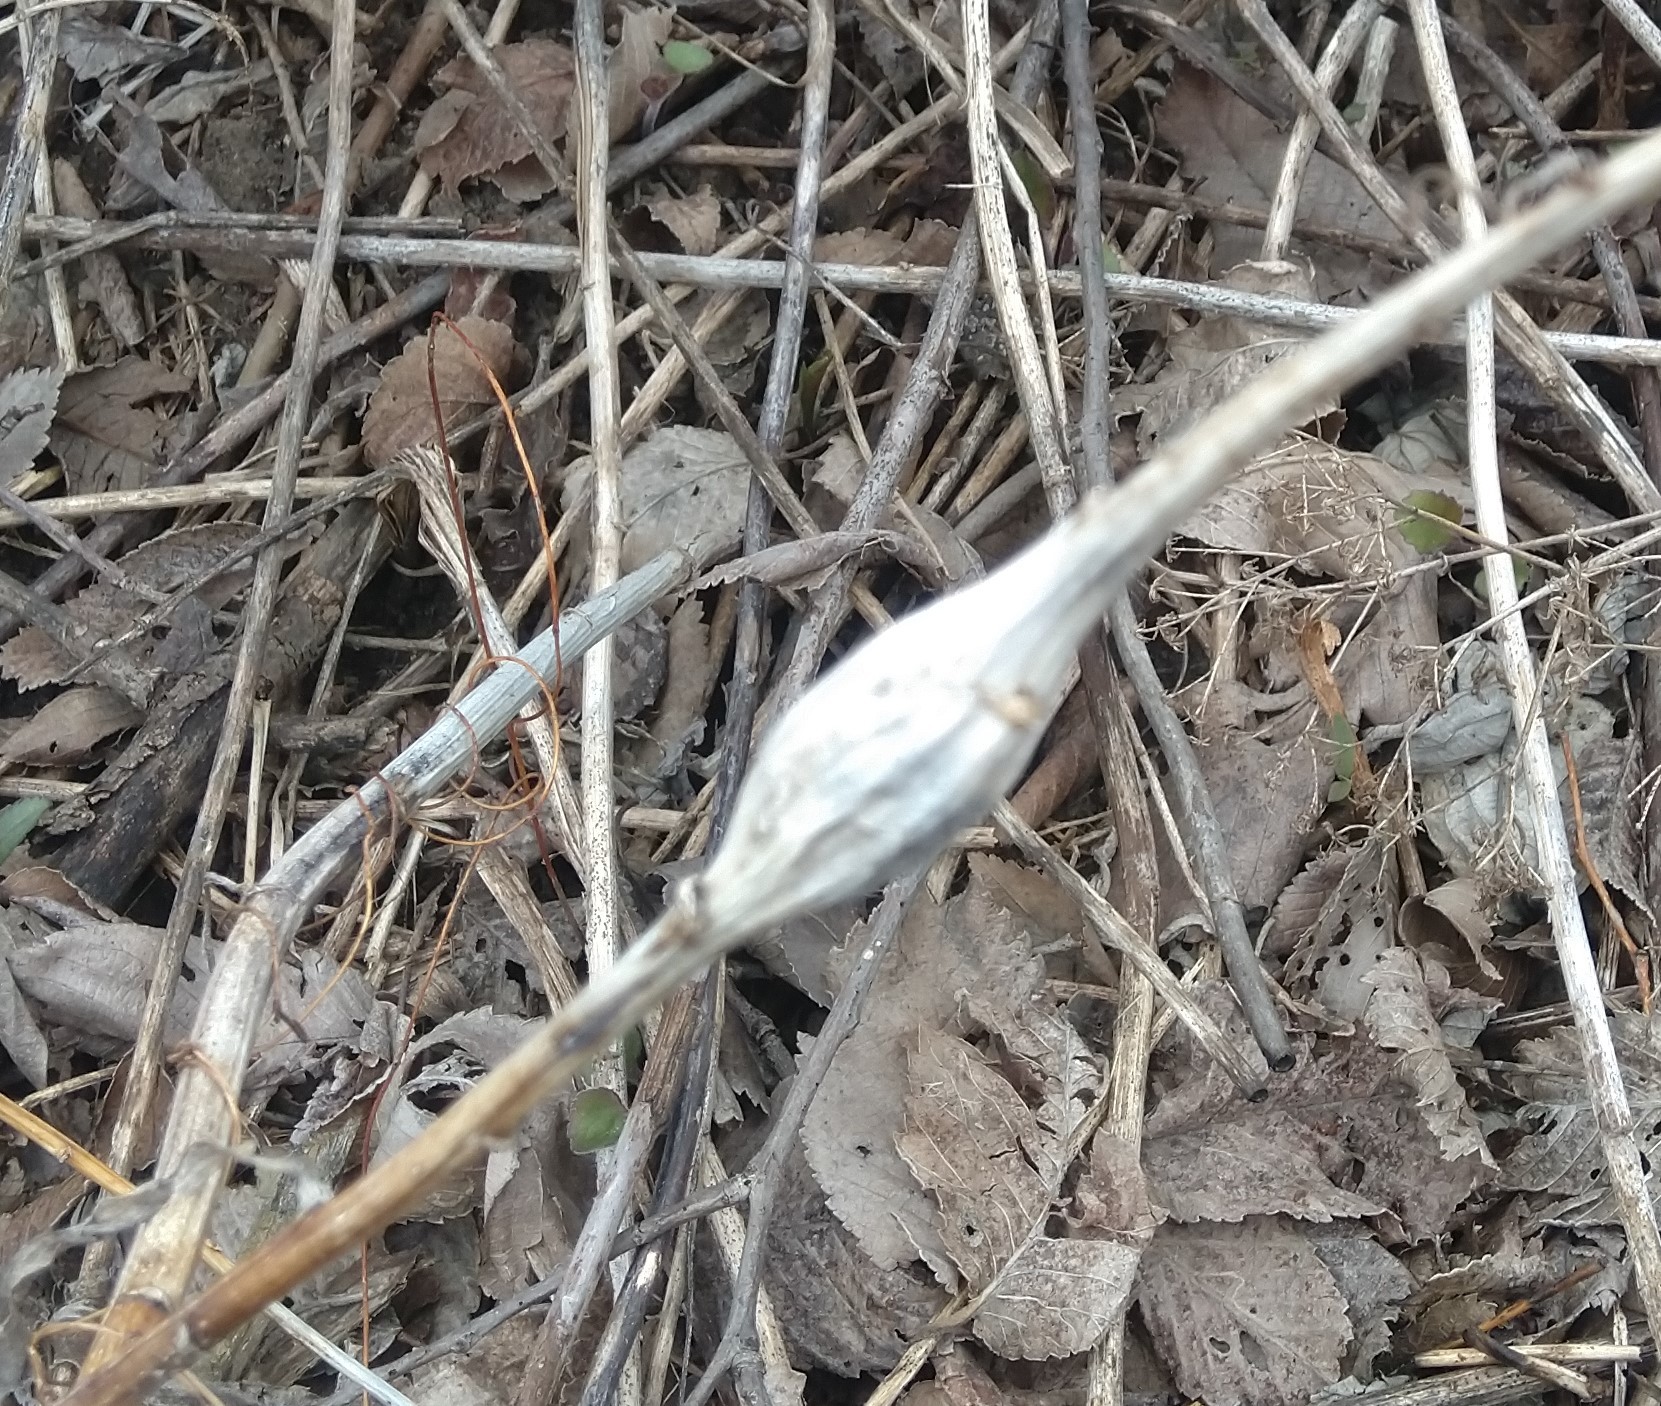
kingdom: Animalia
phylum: Arthropoda
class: Insecta
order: Lepidoptera
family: Gelechiidae
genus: Gnorimoschema
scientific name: Gnorimoschema gallaesolidaginis
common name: Goldenrod elliptical-gall moth
